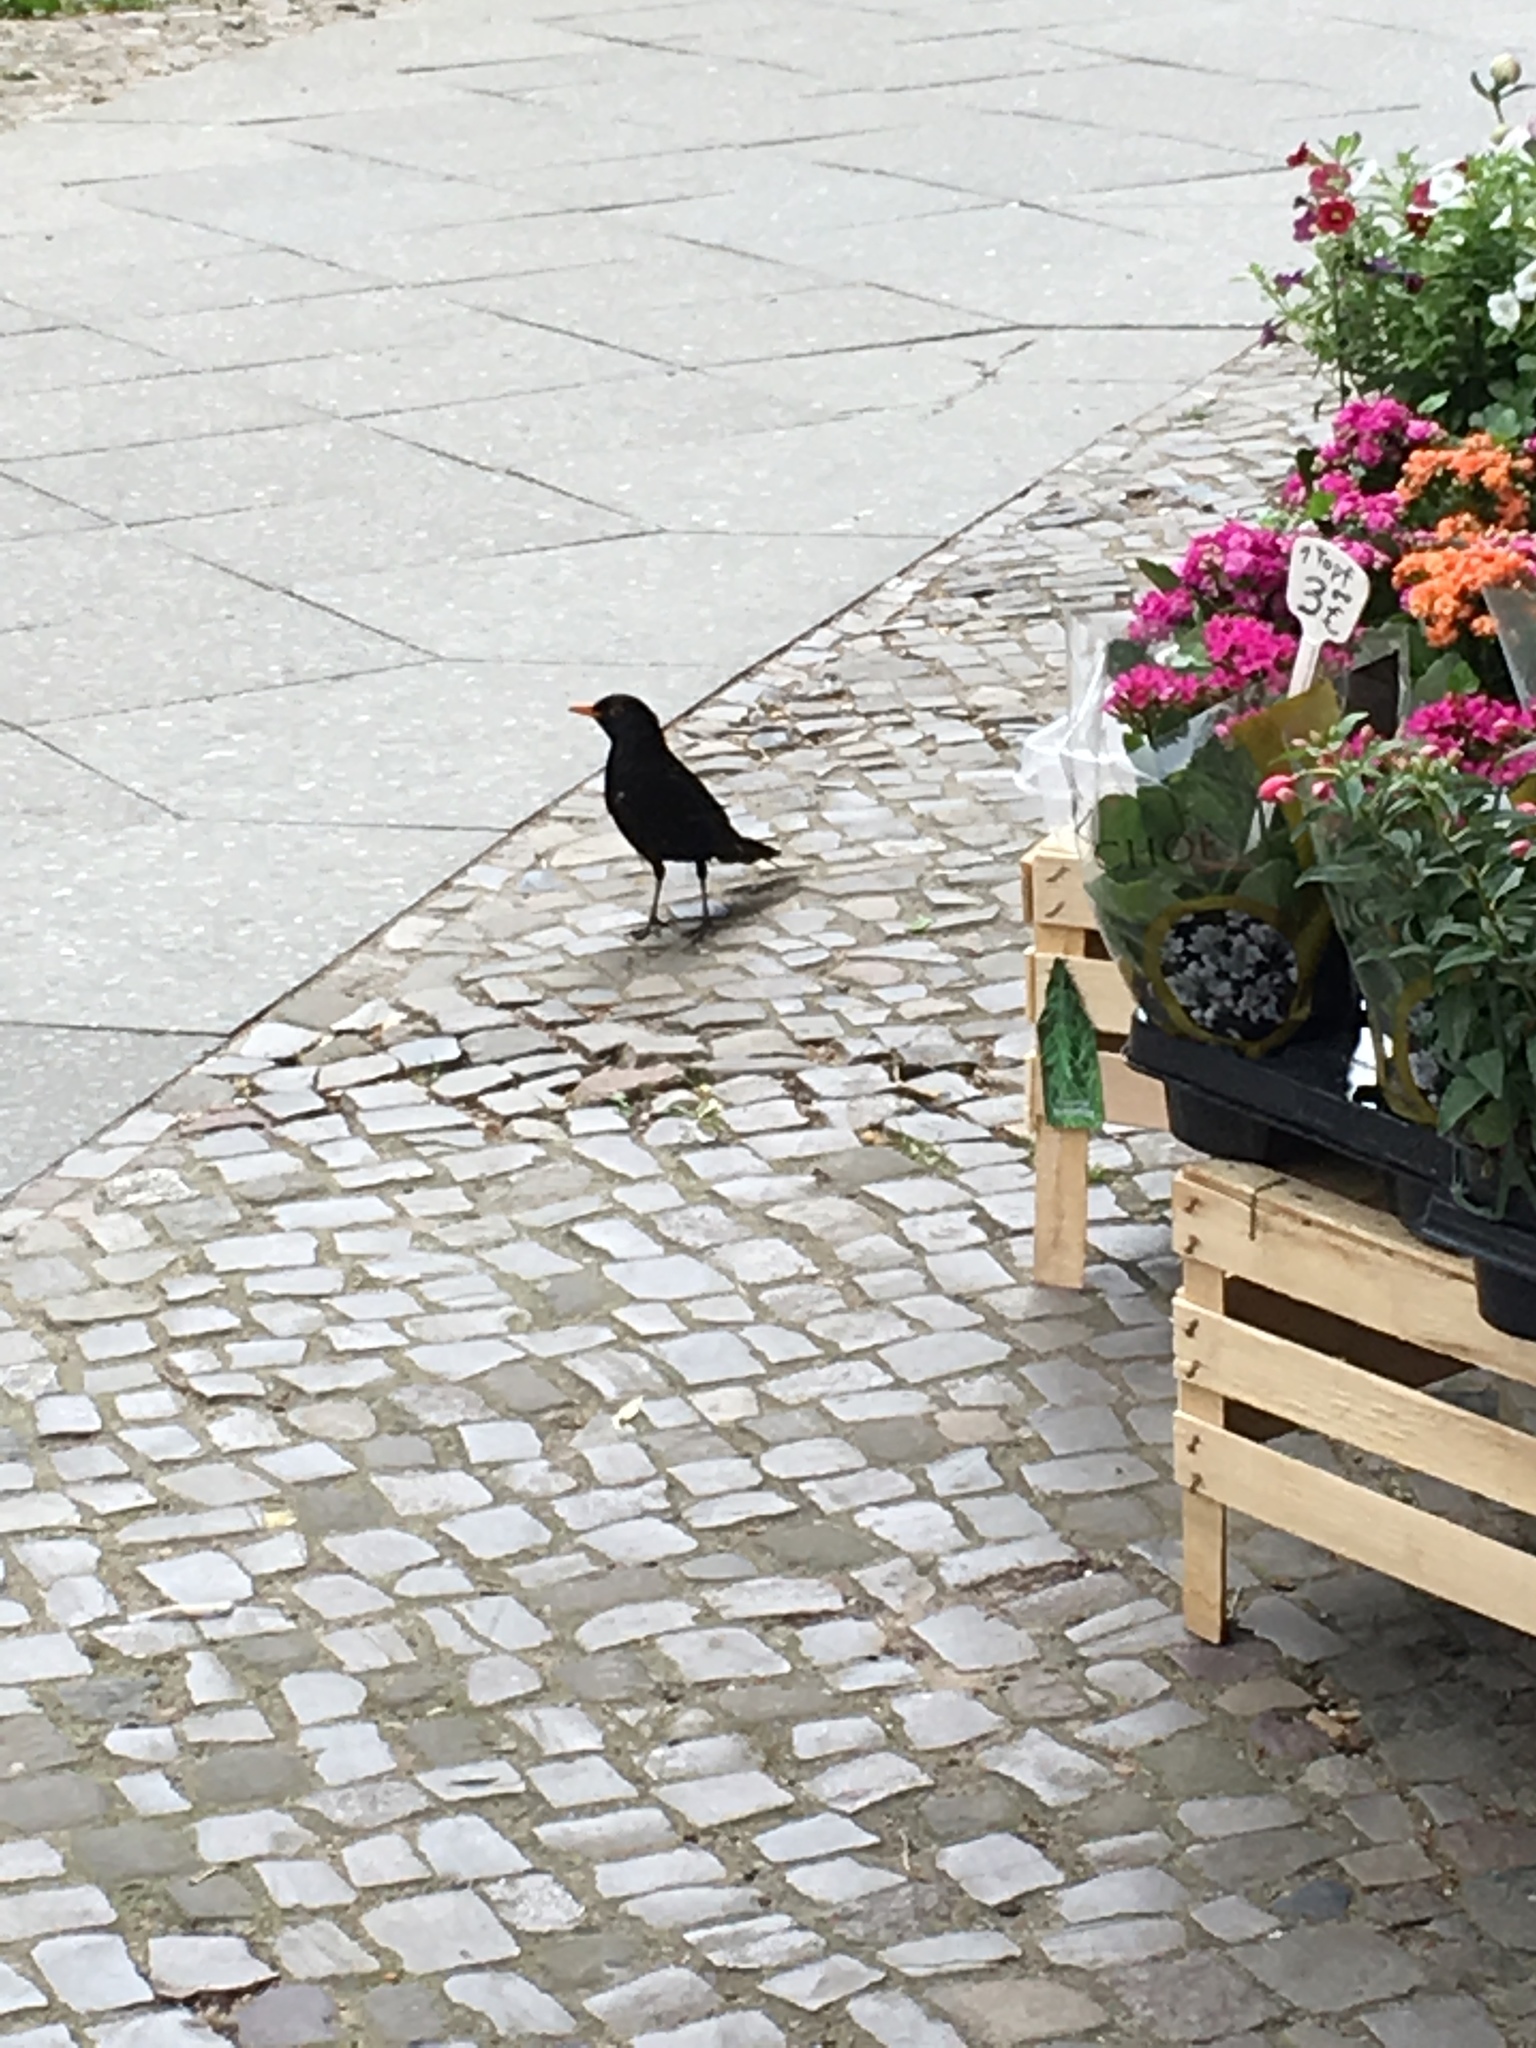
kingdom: Animalia
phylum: Chordata
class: Aves
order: Passeriformes
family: Turdidae
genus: Turdus
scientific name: Turdus merula
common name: Common blackbird
